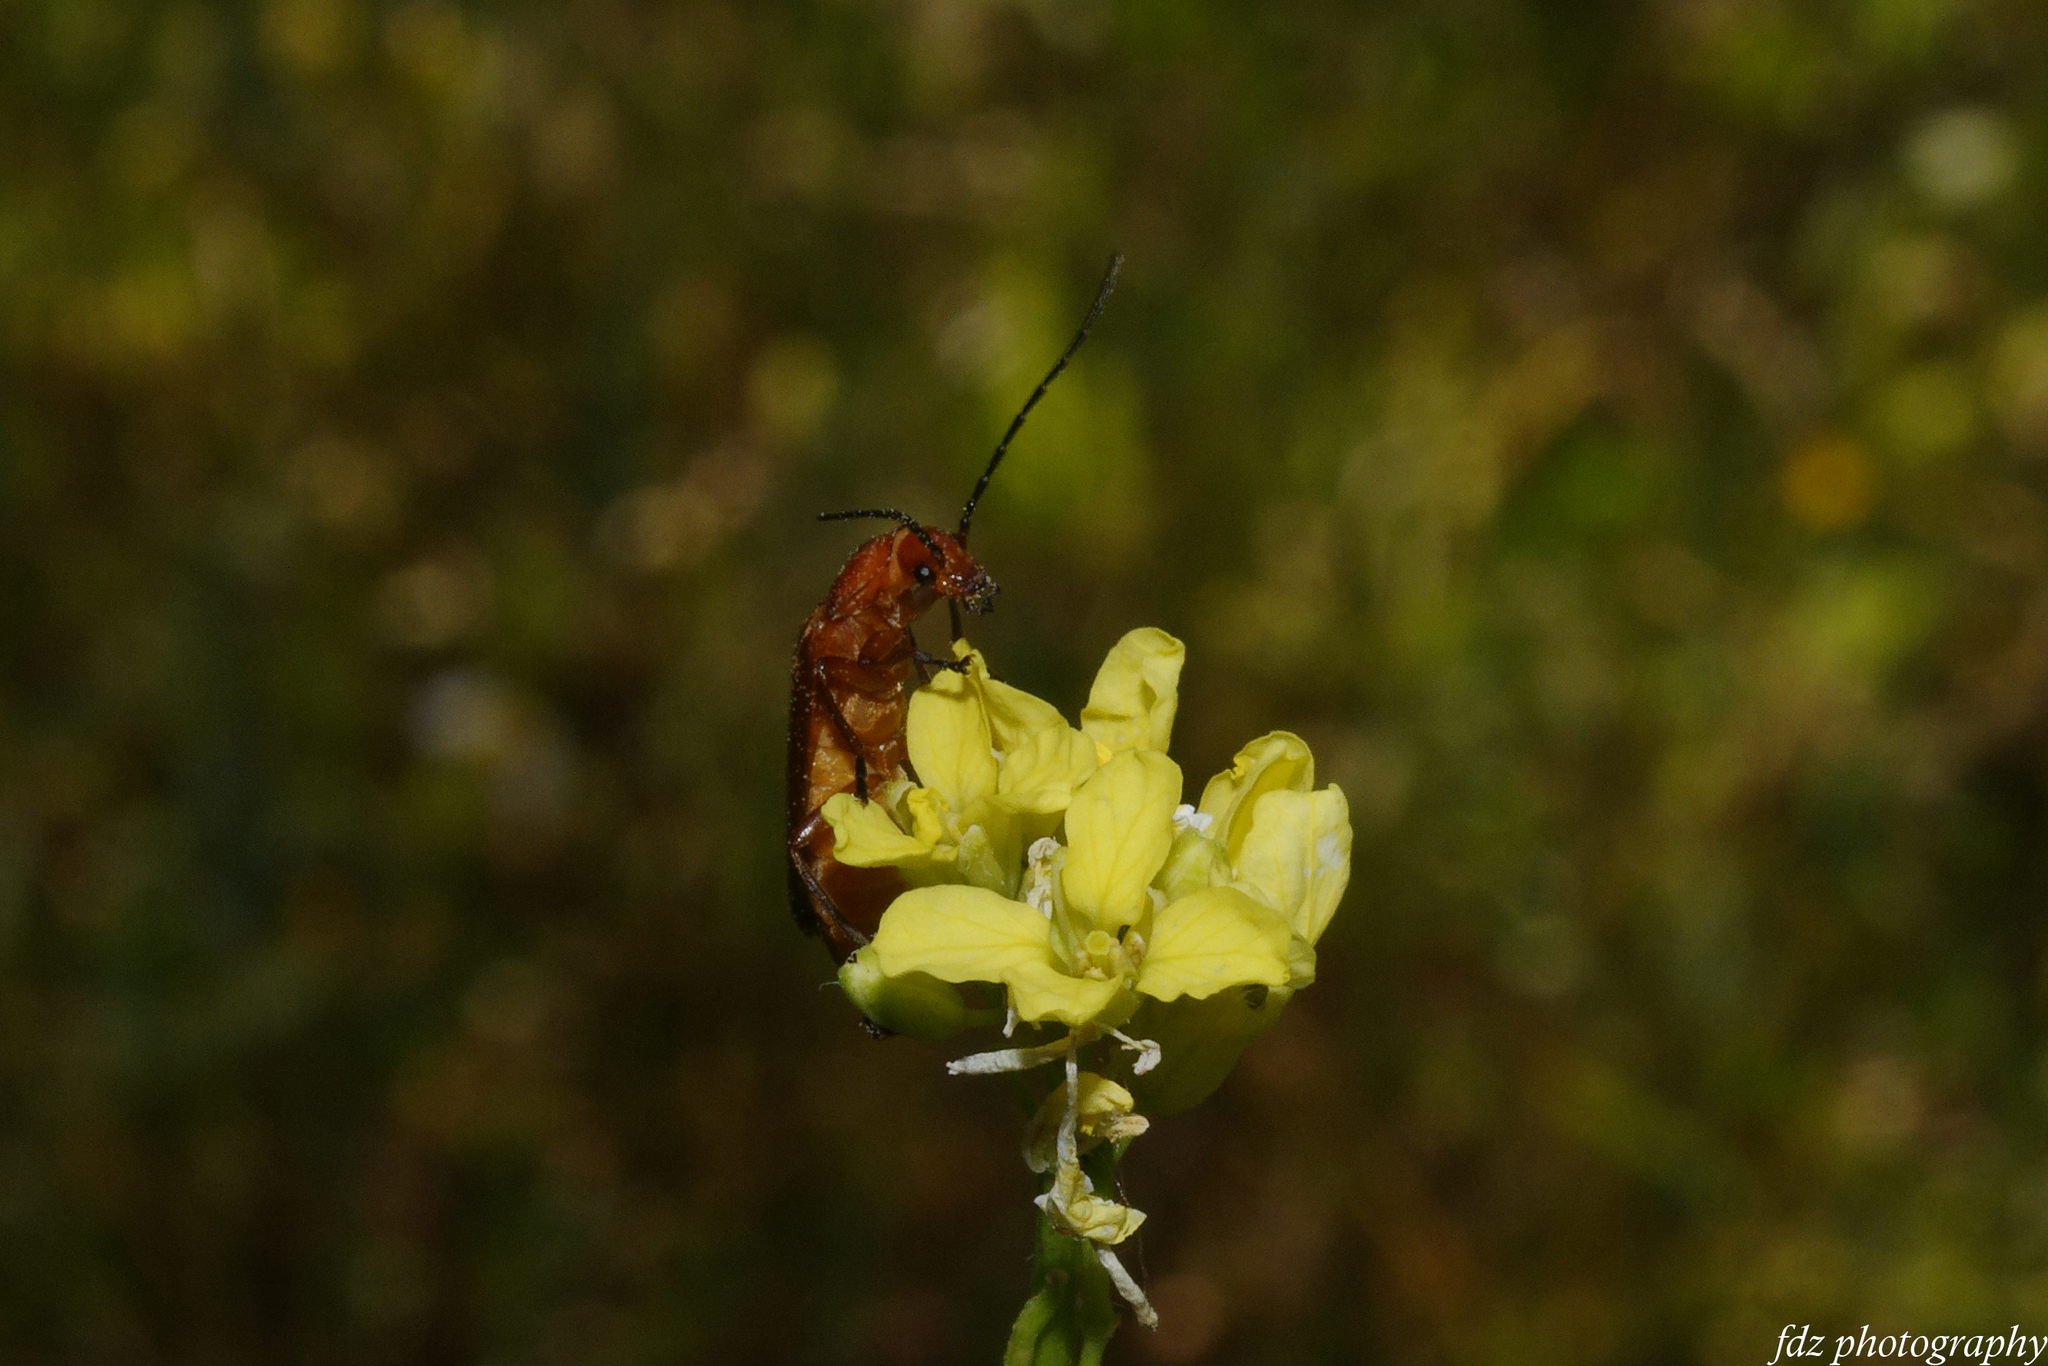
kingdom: Animalia
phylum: Arthropoda
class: Insecta
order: Coleoptera
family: Cantharidae
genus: Rhagonycha
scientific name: Rhagonycha fulva
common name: Common red soldier beetle
